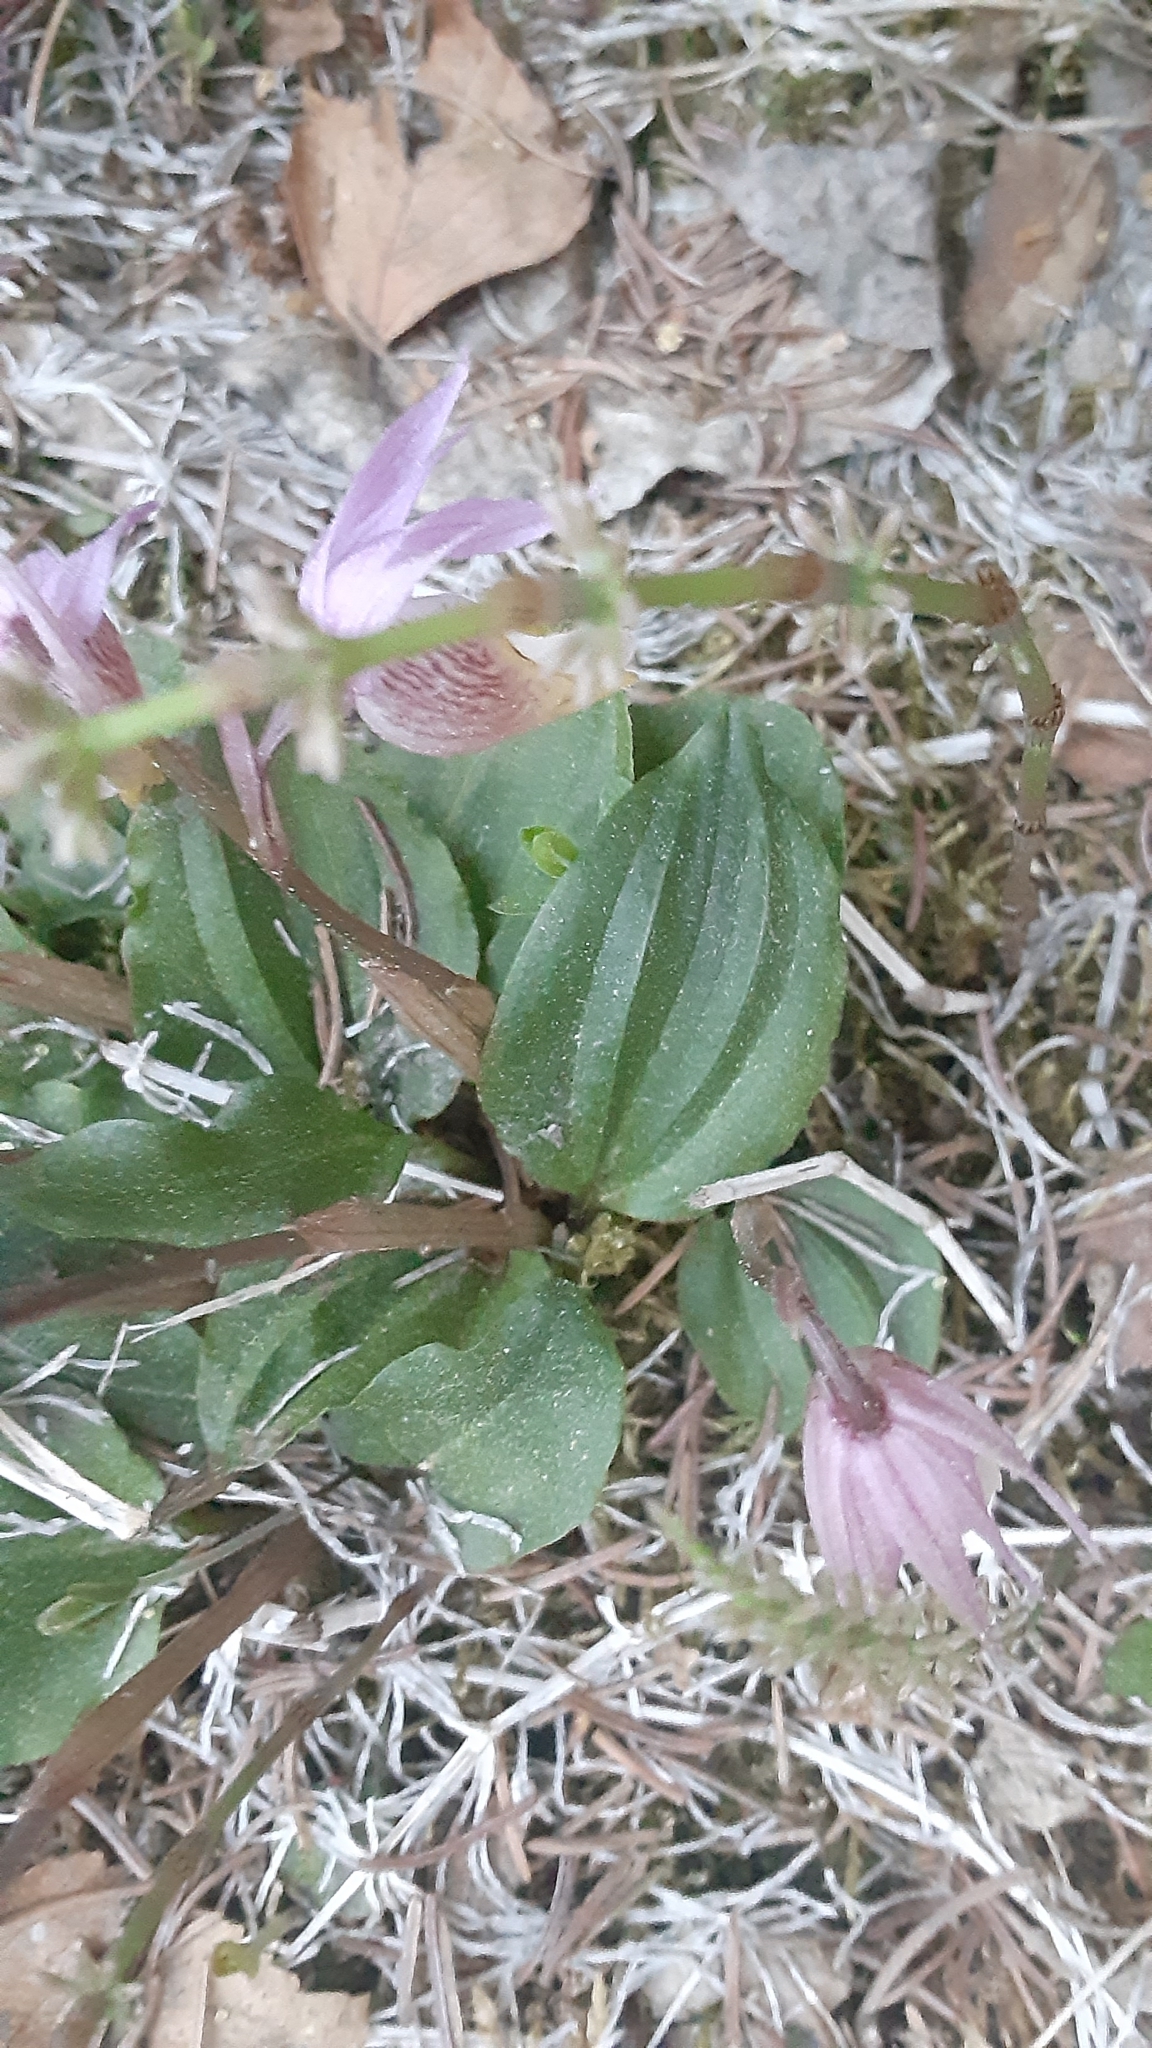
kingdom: Plantae
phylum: Tracheophyta
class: Liliopsida
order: Asparagales
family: Orchidaceae
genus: Calypso
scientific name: Calypso bulbosa
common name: Calypso
